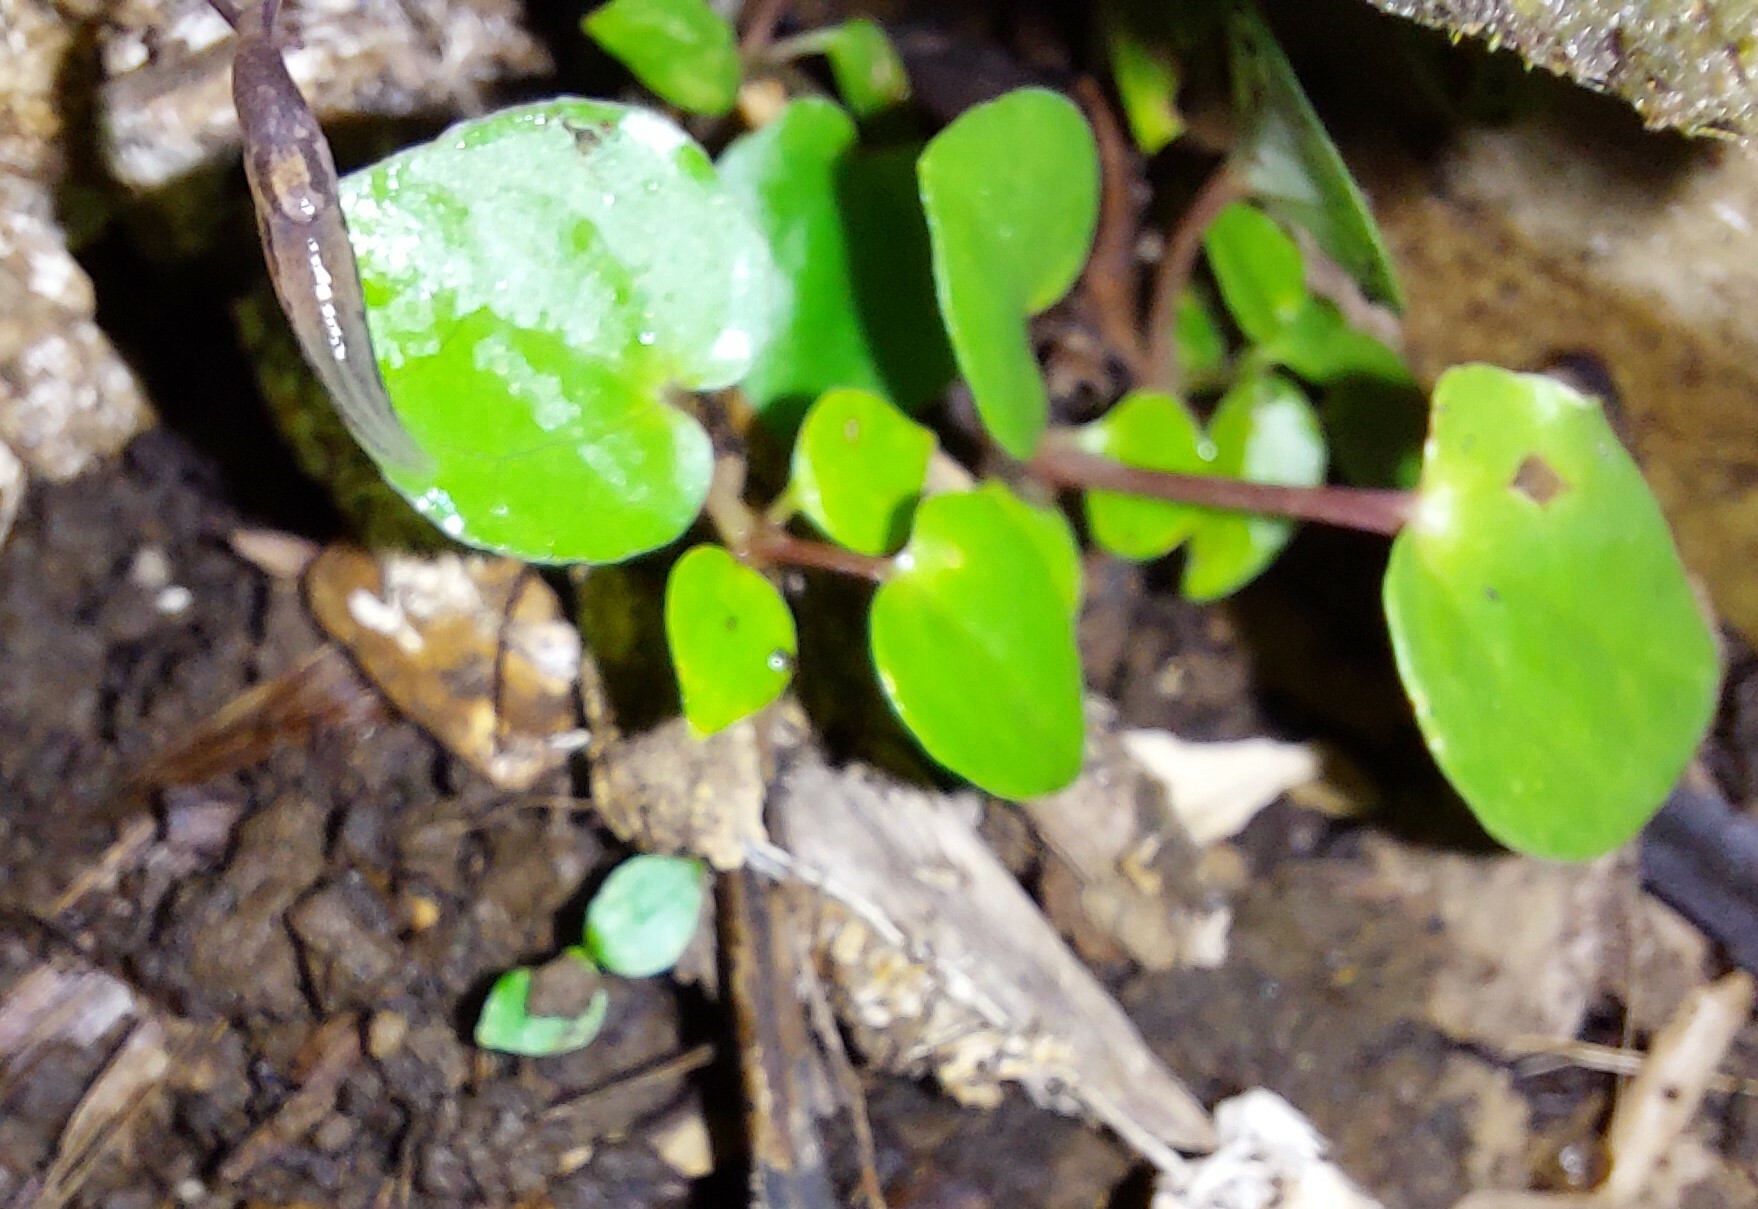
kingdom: Plantae
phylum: Tracheophyta
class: Magnoliopsida
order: Piperales
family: Piperaceae
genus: Macropiper
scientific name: Macropiper excelsum
